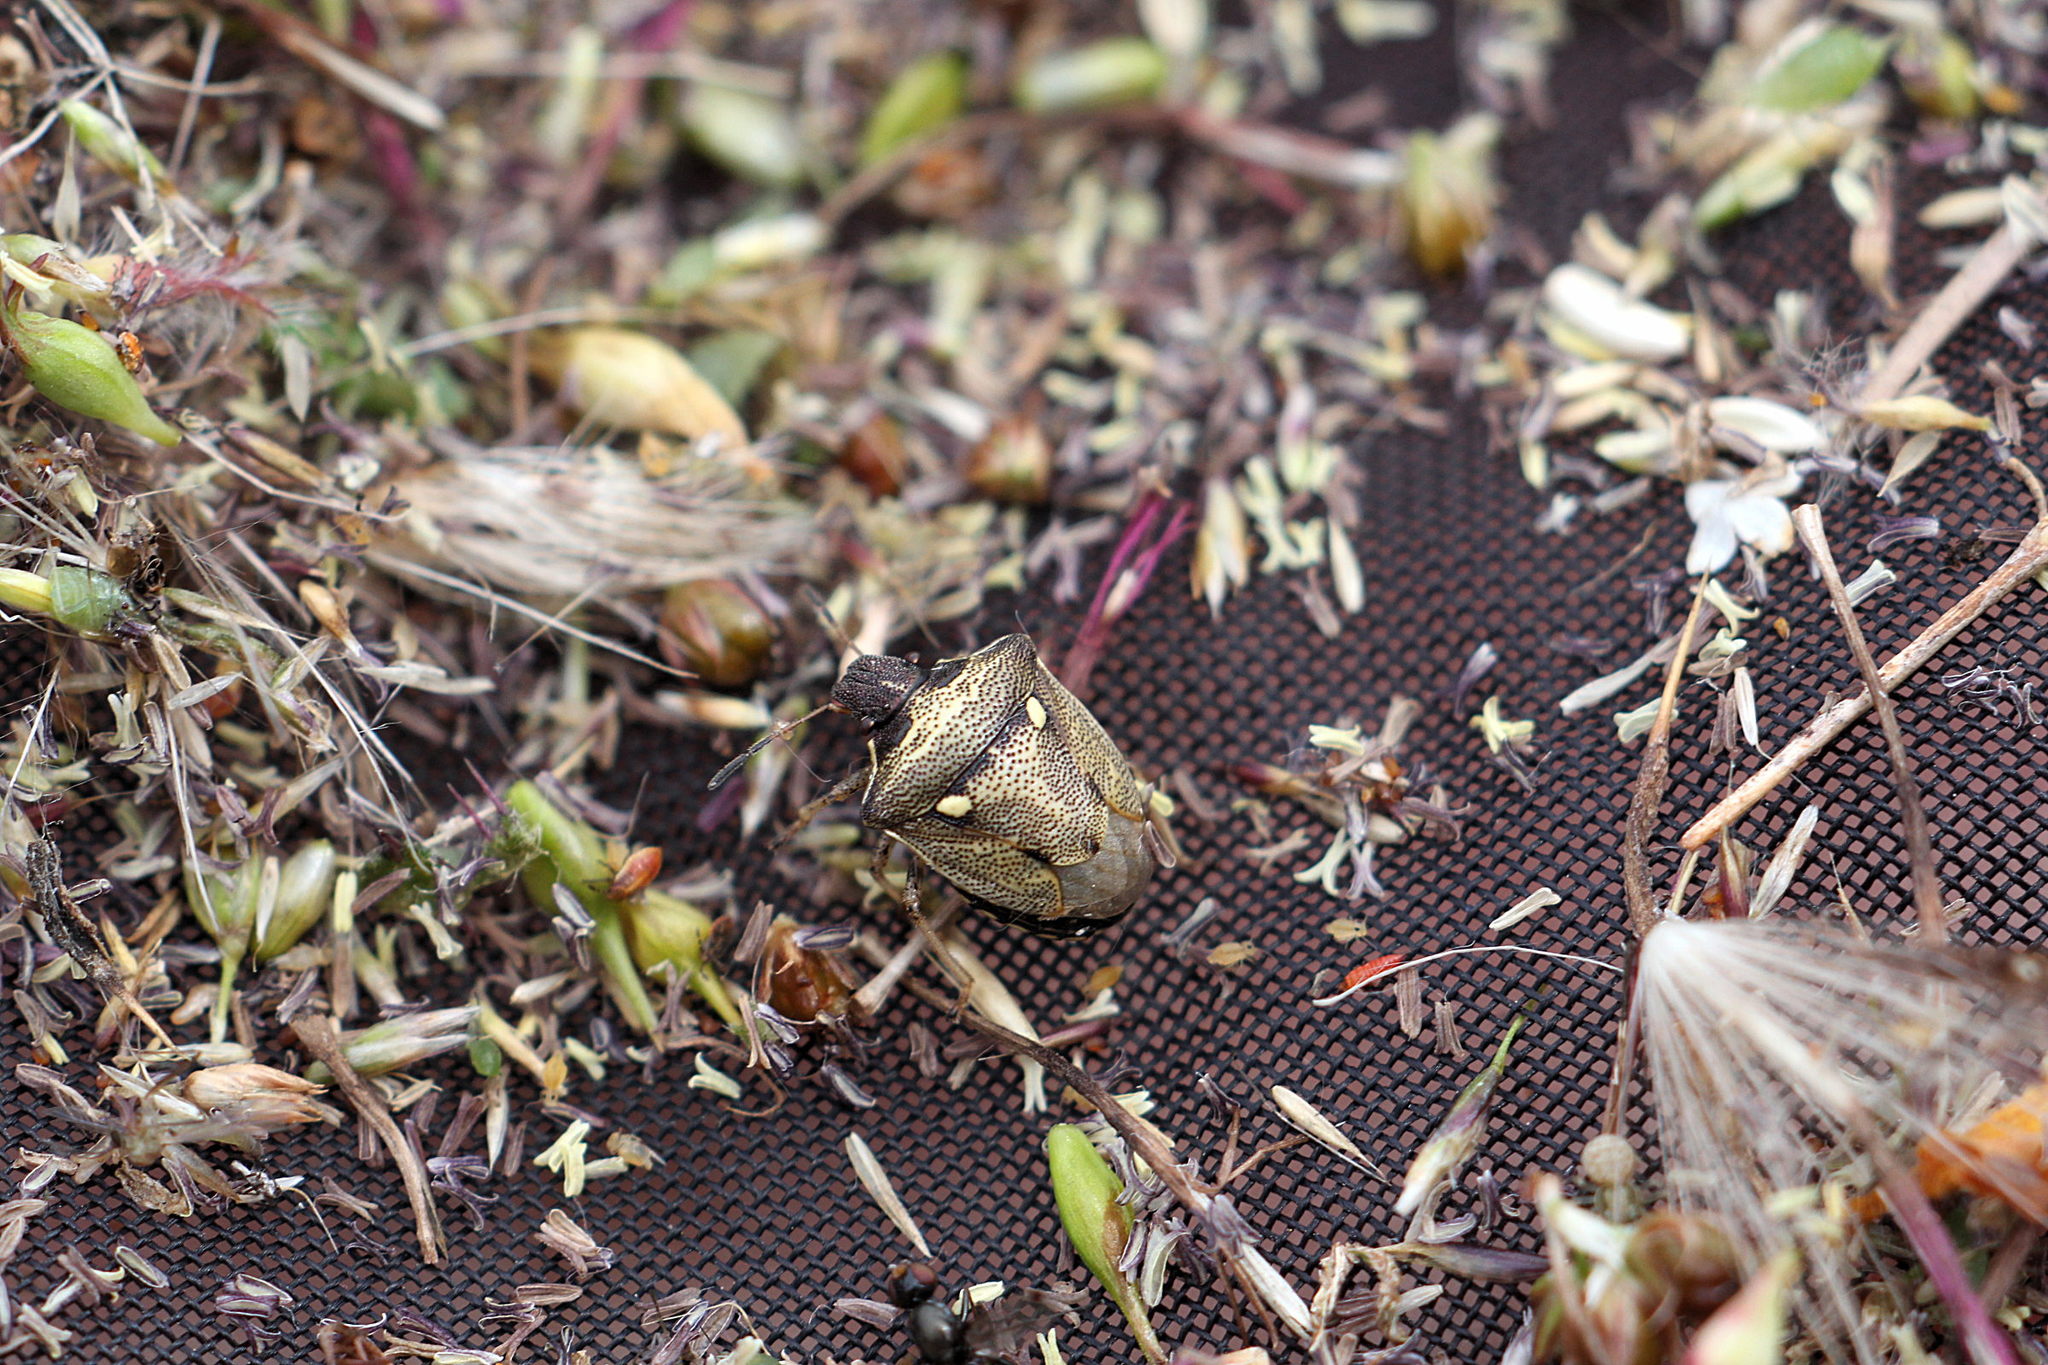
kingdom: Animalia
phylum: Arthropoda
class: Insecta
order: Hemiptera
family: Pentatomidae
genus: Eysarcoris
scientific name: Eysarcoris aeneus
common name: New forest shieldbug
